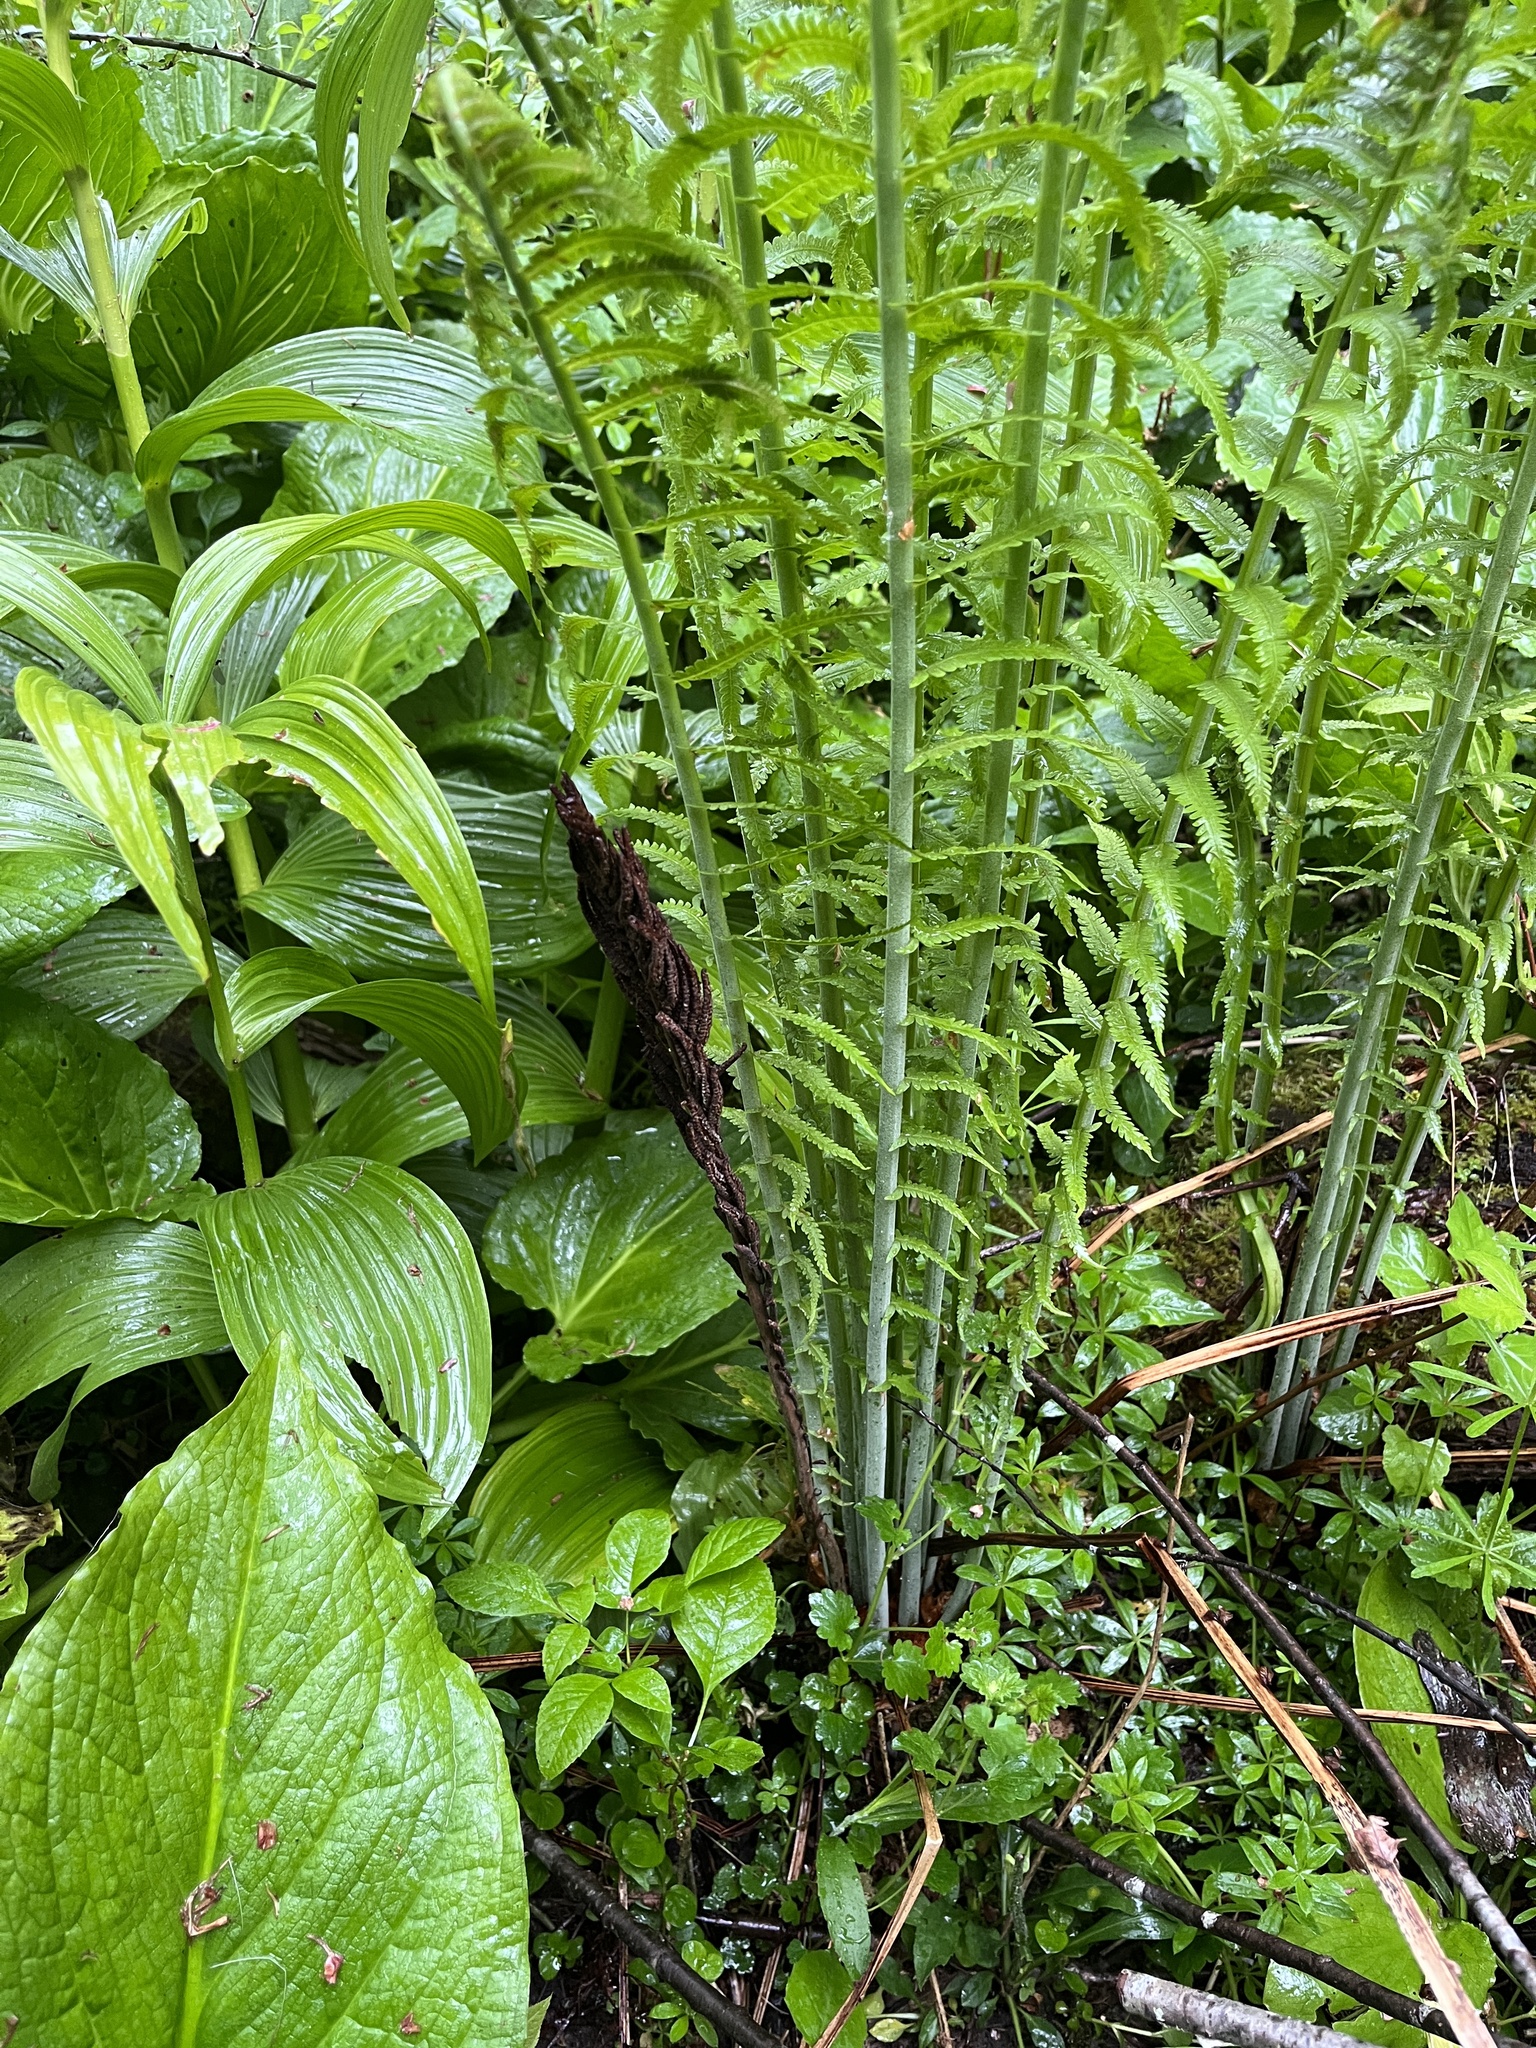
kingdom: Plantae
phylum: Tracheophyta
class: Polypodiopsida
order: Polypodiales
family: Onocleaceae
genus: Matteuccia
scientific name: Matteuccia struthiopteris
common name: Ostrich fern
